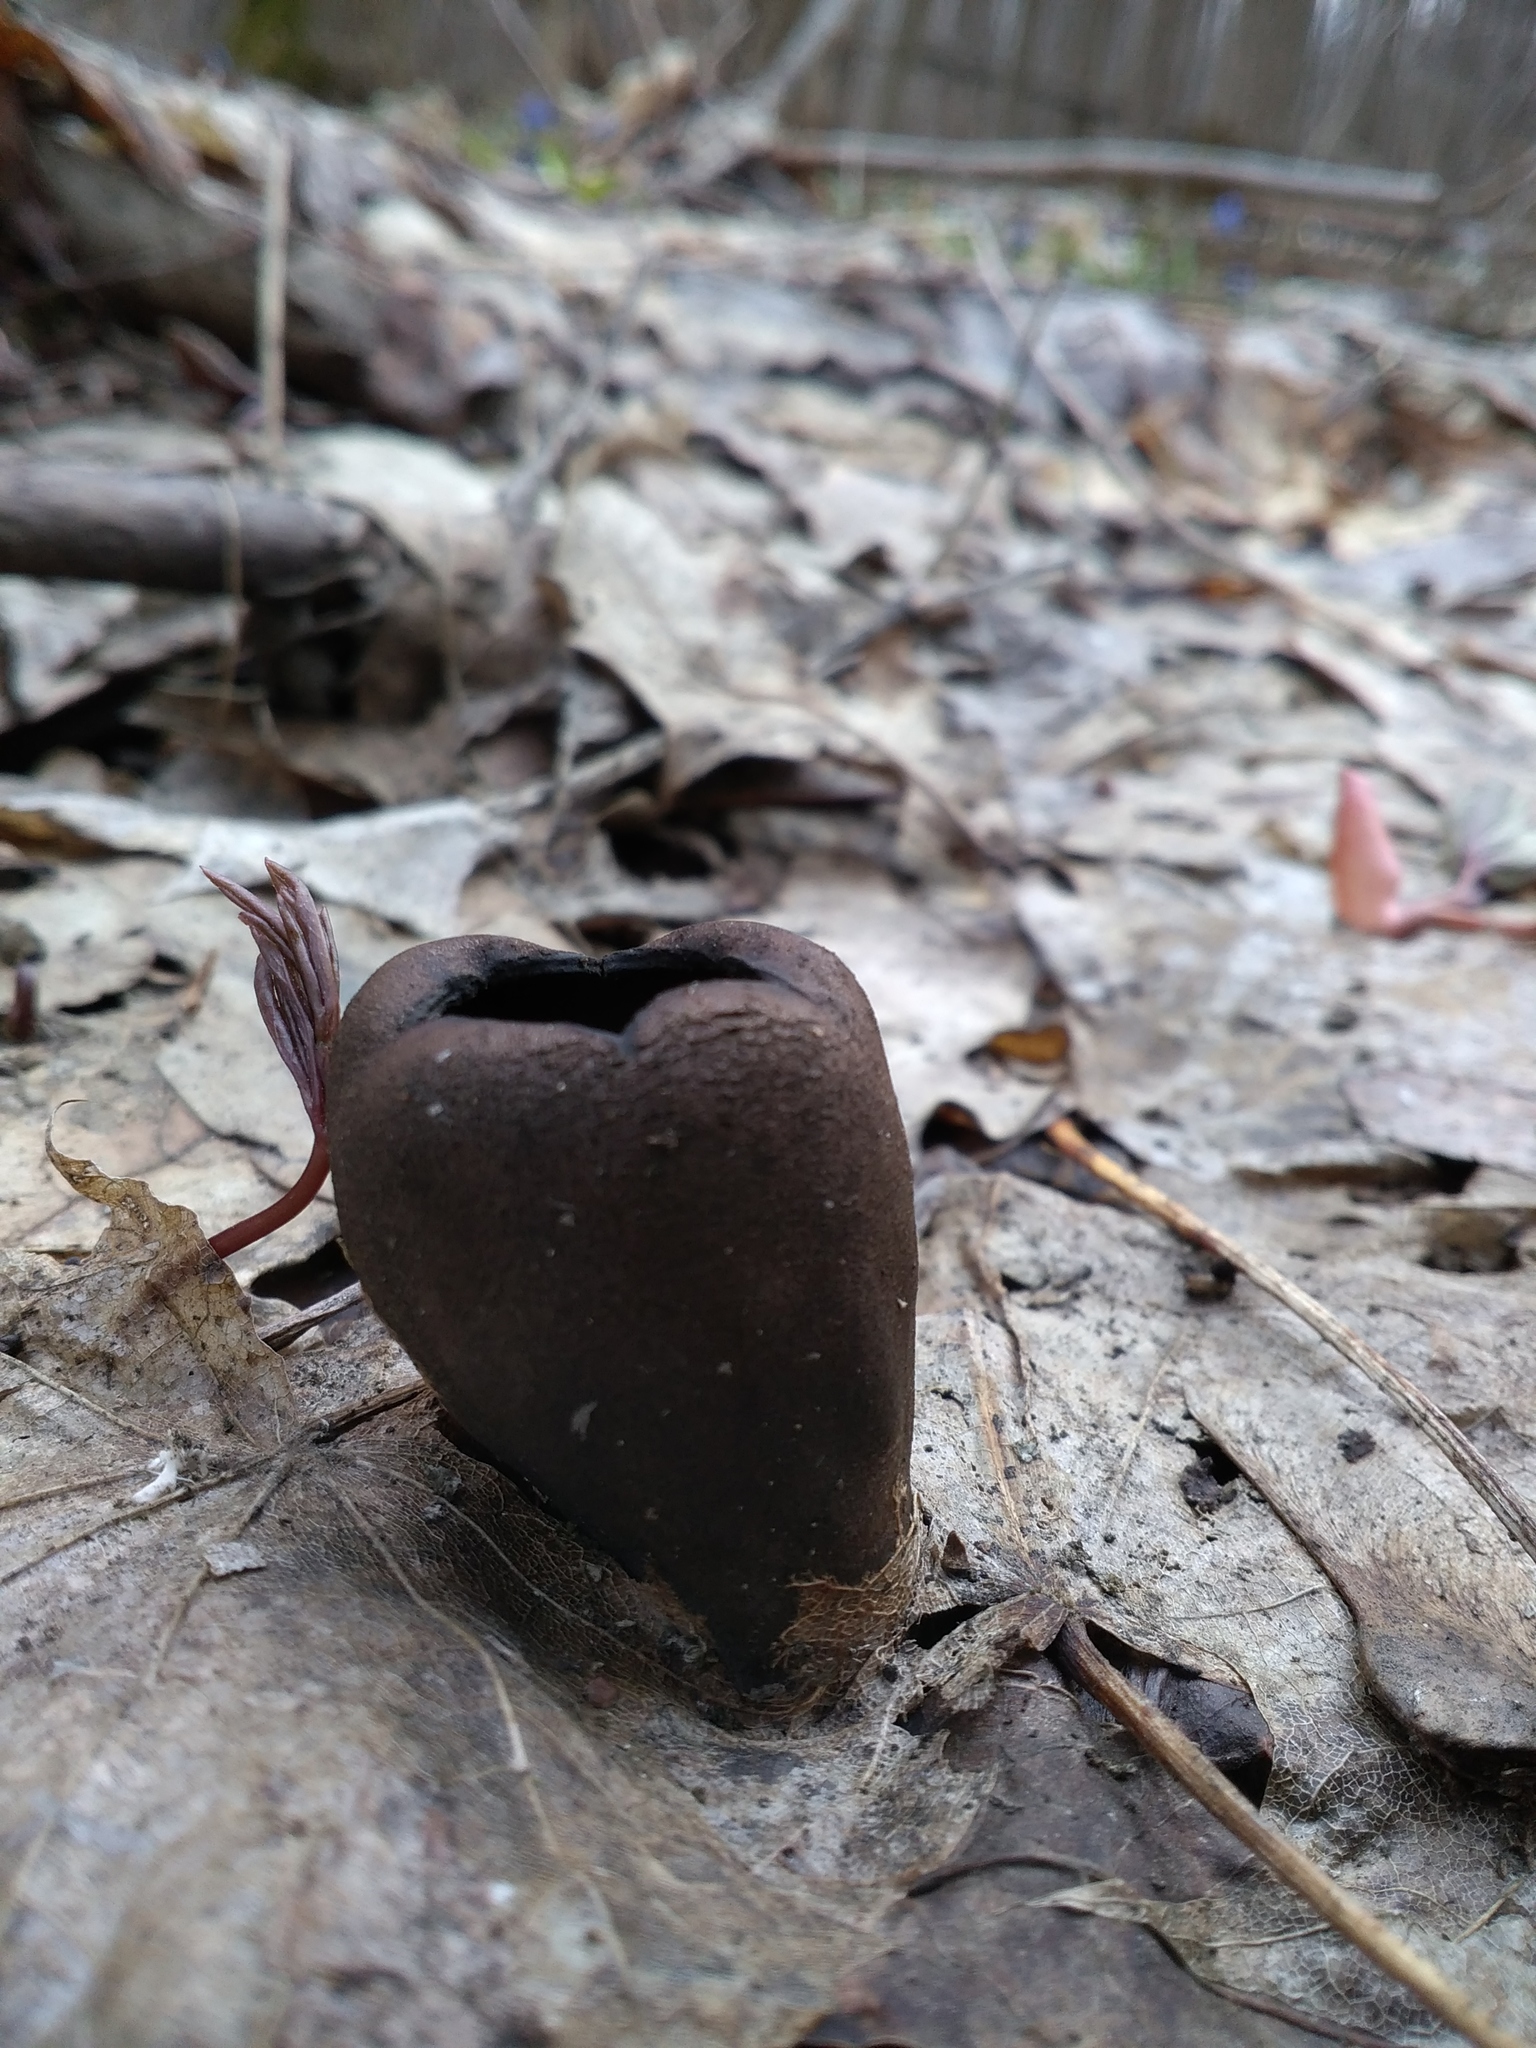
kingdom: Fungi
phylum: Ascomycota
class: Pezizomycetes
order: Pezizales
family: Sarcosomataceae
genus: Urnula
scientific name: Urnula craterium
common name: Devil's urn
